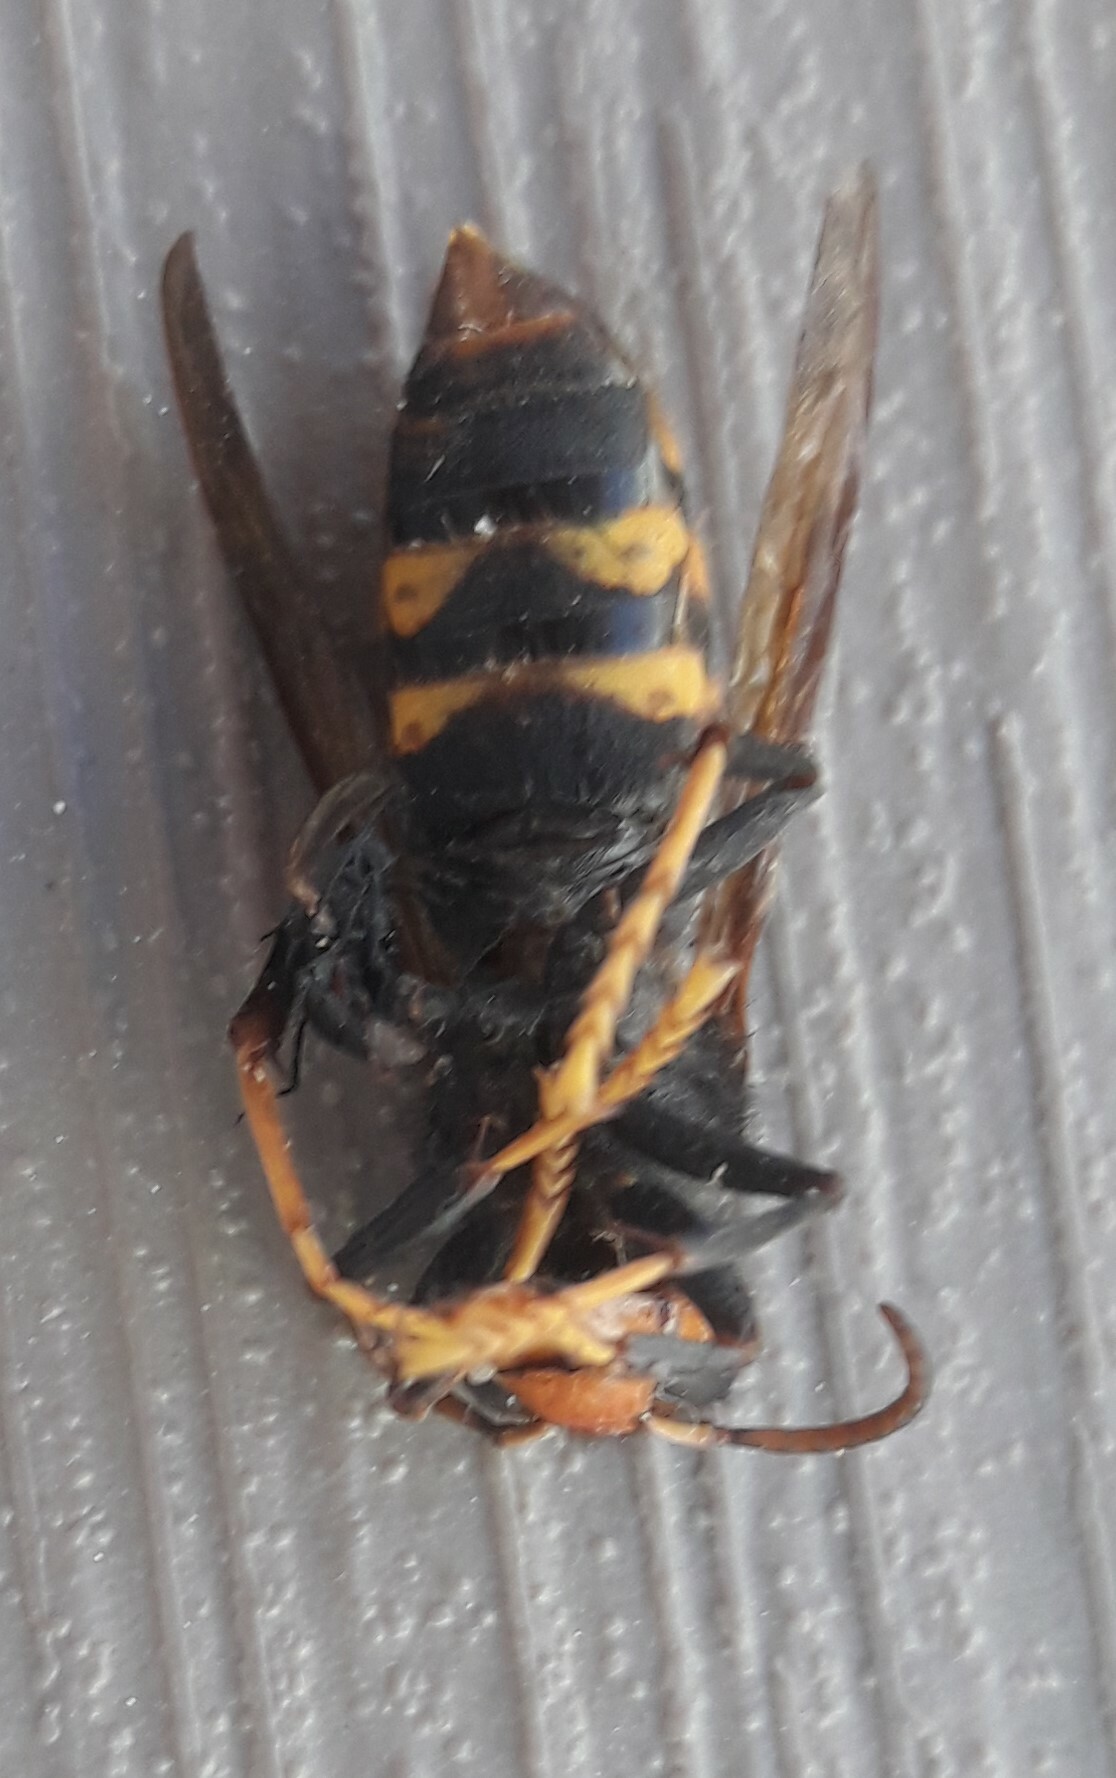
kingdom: Animalia
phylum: Arthropoda
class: Insecta
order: Hymenoptera
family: Vespidae
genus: Vespa
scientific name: Vespa velutina
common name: Asian hornet
